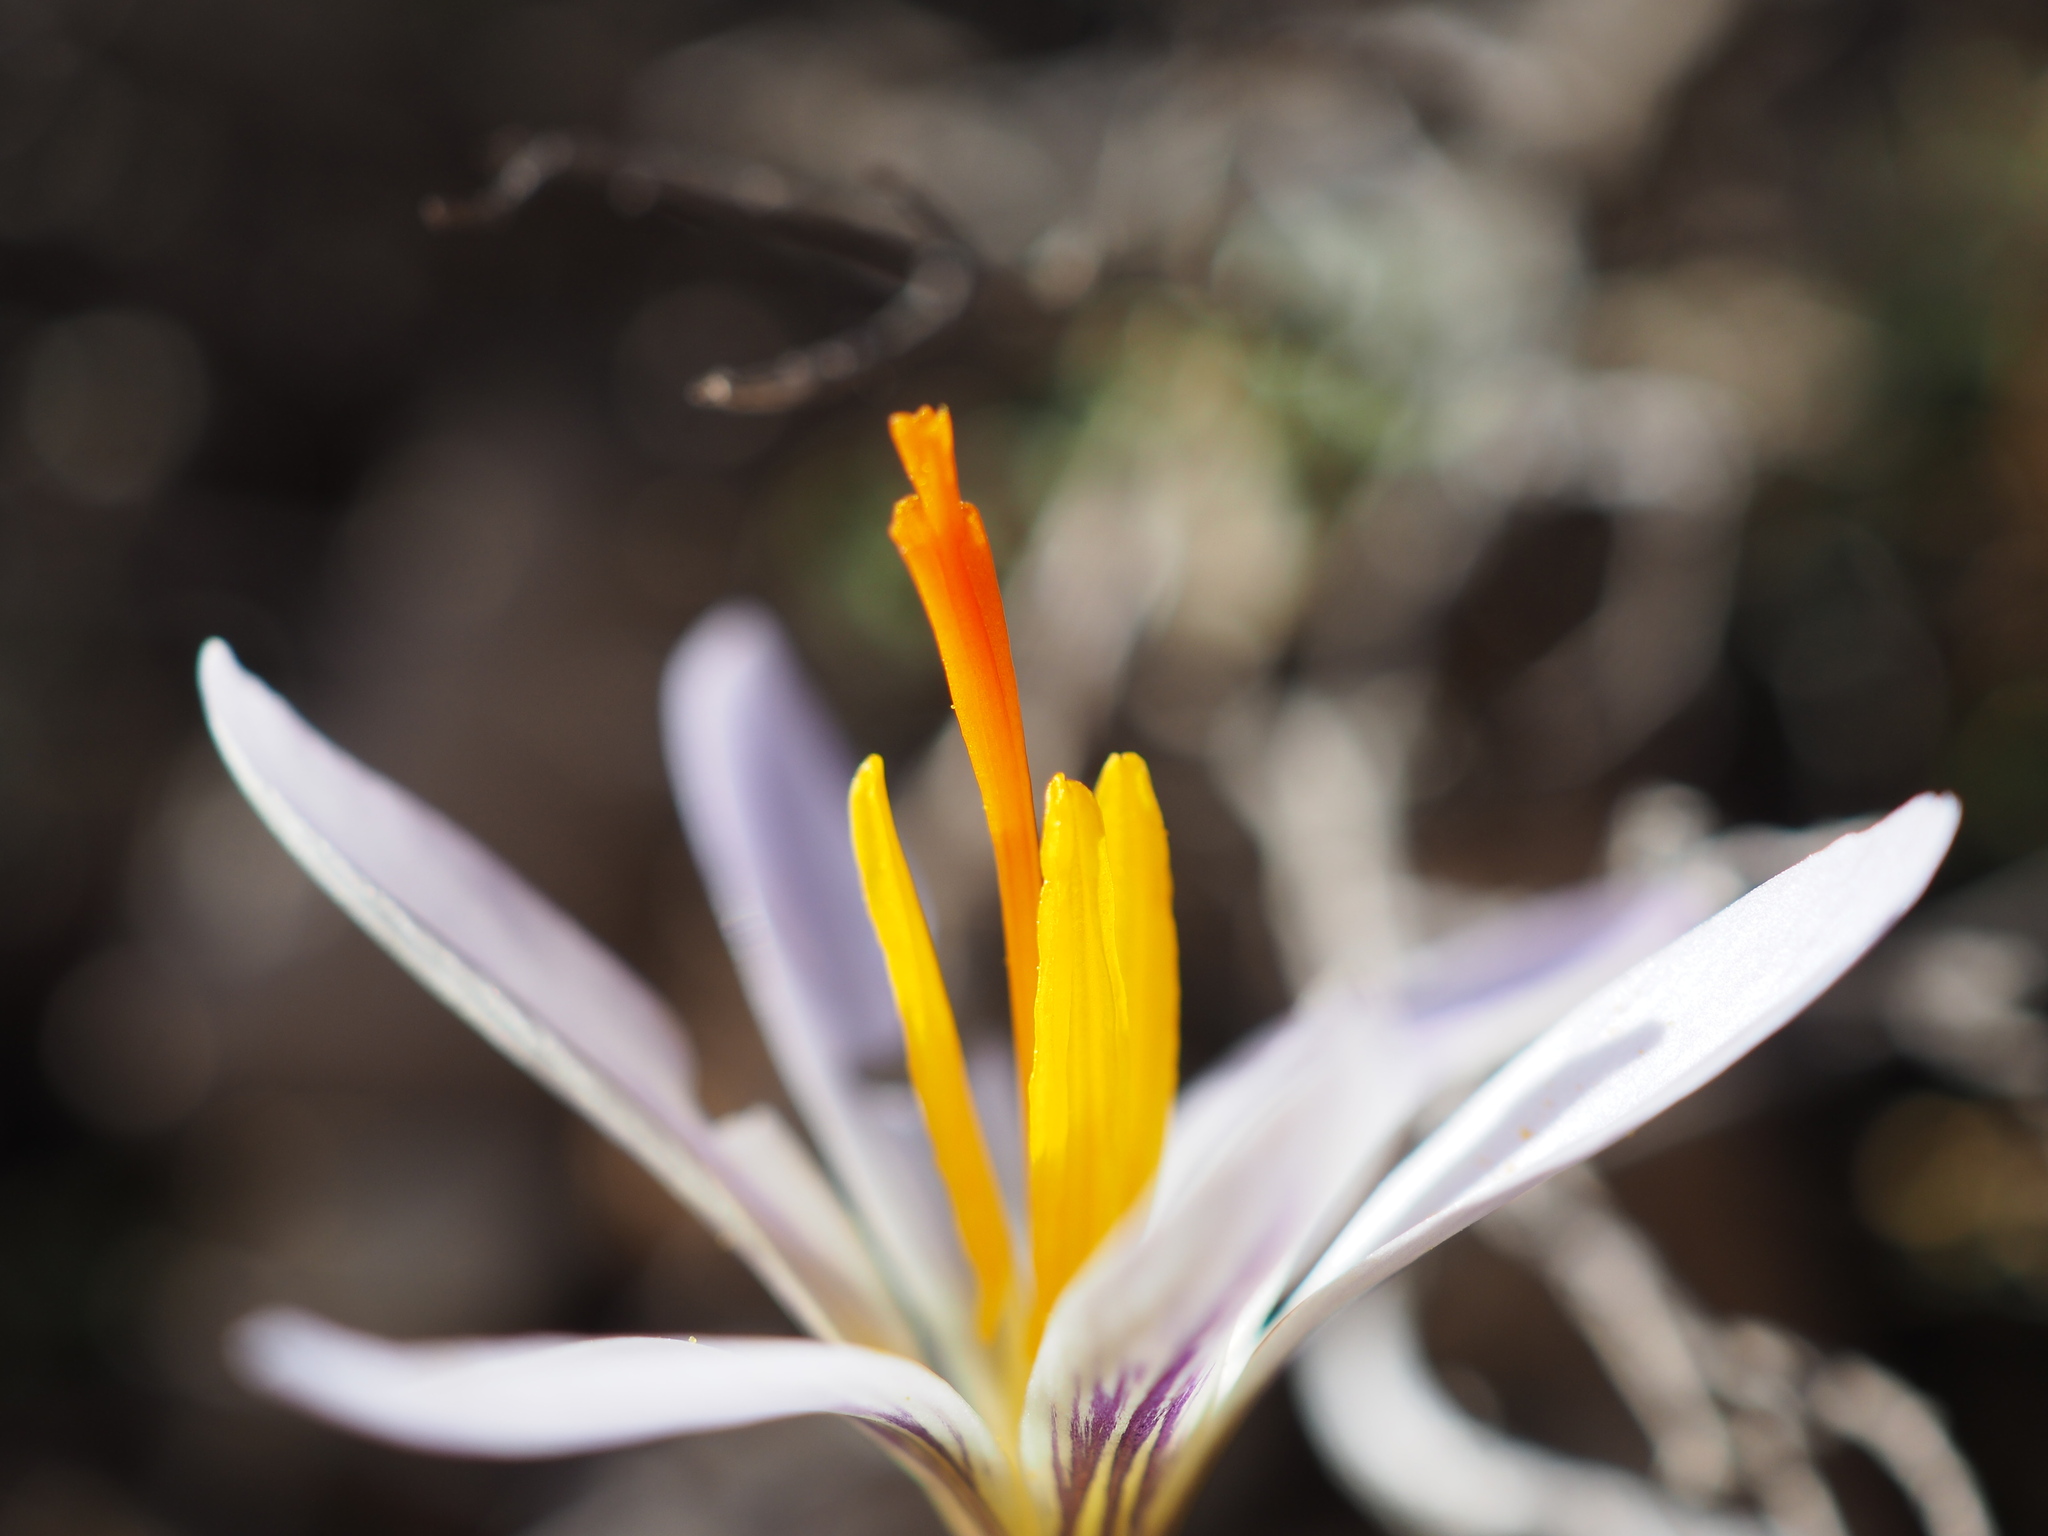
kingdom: Plantae
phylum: Tracheophyta
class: Liliopsida
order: Asparagales
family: Iridaceae
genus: Crocus
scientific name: Crocus versicolor
